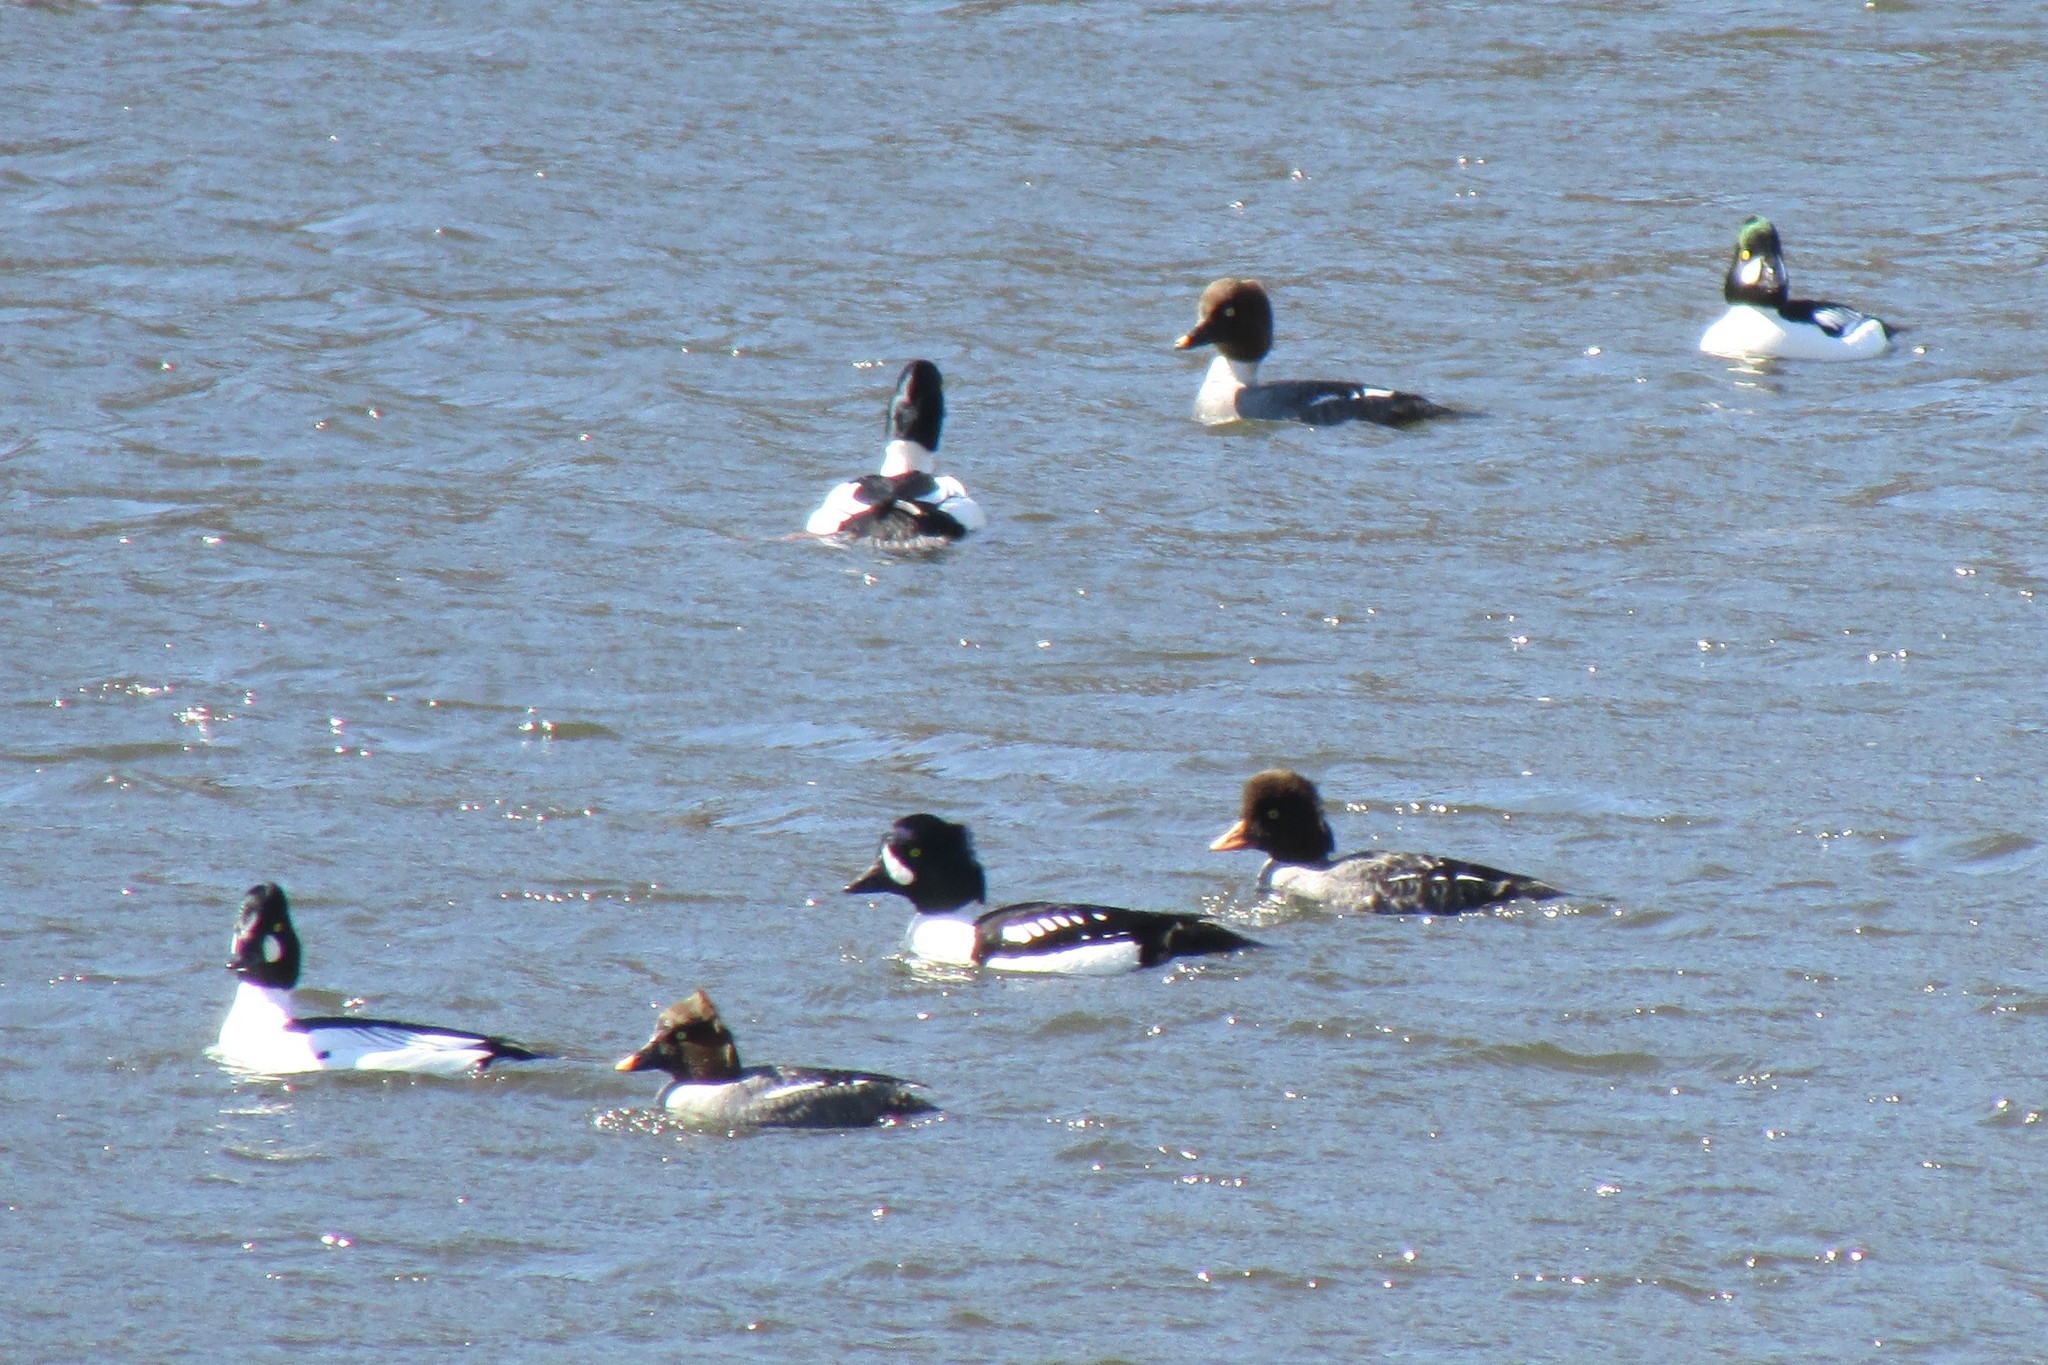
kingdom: Animalia
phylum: Chordata
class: Aves
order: Anseriformes
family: Anatidae
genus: Bucephala
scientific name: Bucephala islandica
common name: Barrow's goldeneye
